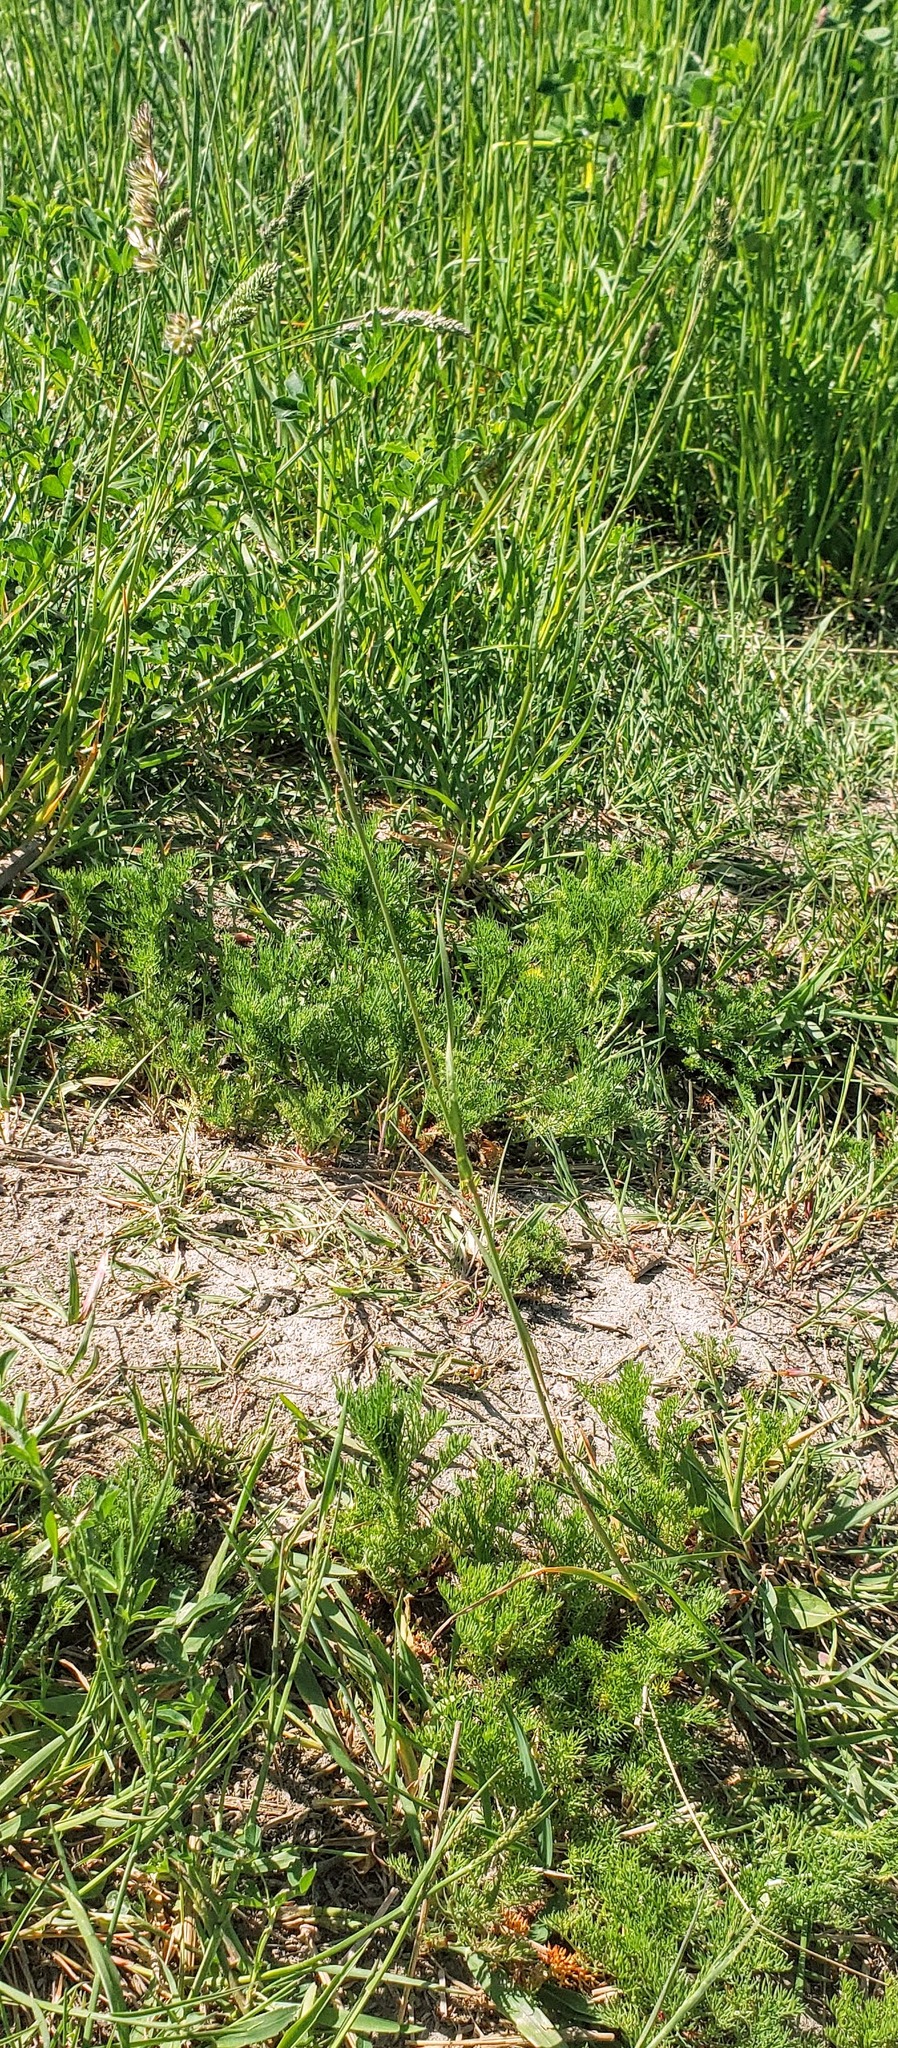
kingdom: Plantae
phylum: Tracheophyta
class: Liliopsida
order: Poales
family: Poaceae
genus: Dactylis
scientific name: Dactylis glomerata
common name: Orchardgrass
